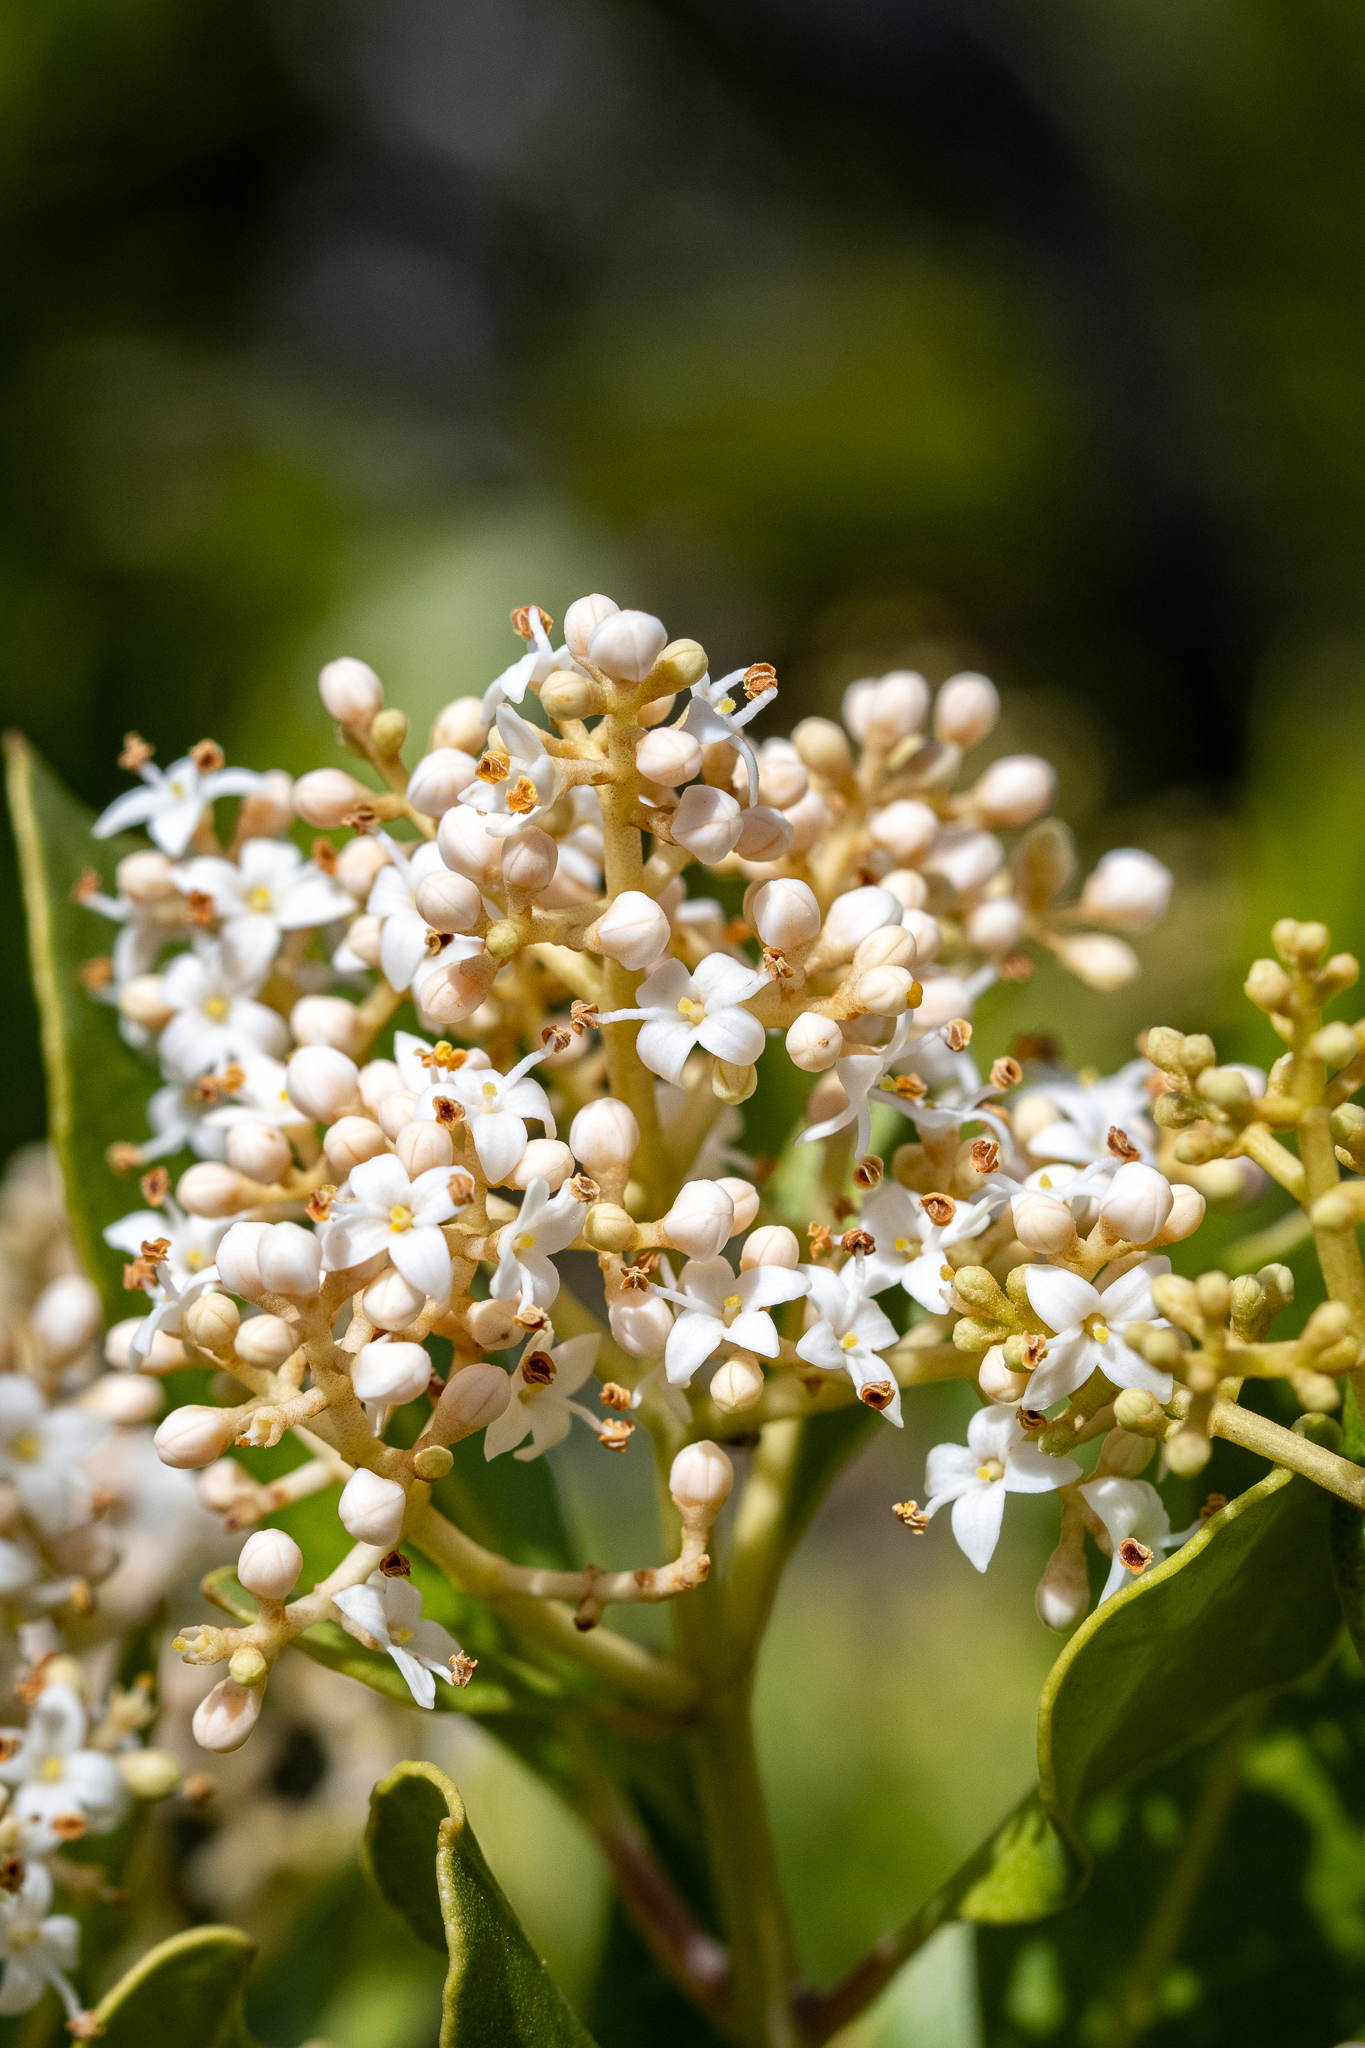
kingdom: Plantae
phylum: Tracheophyta
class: Magnoliopsida
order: Lamiales
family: Oleaceae
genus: Olea
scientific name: Olea capensis
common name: Black ironwood
